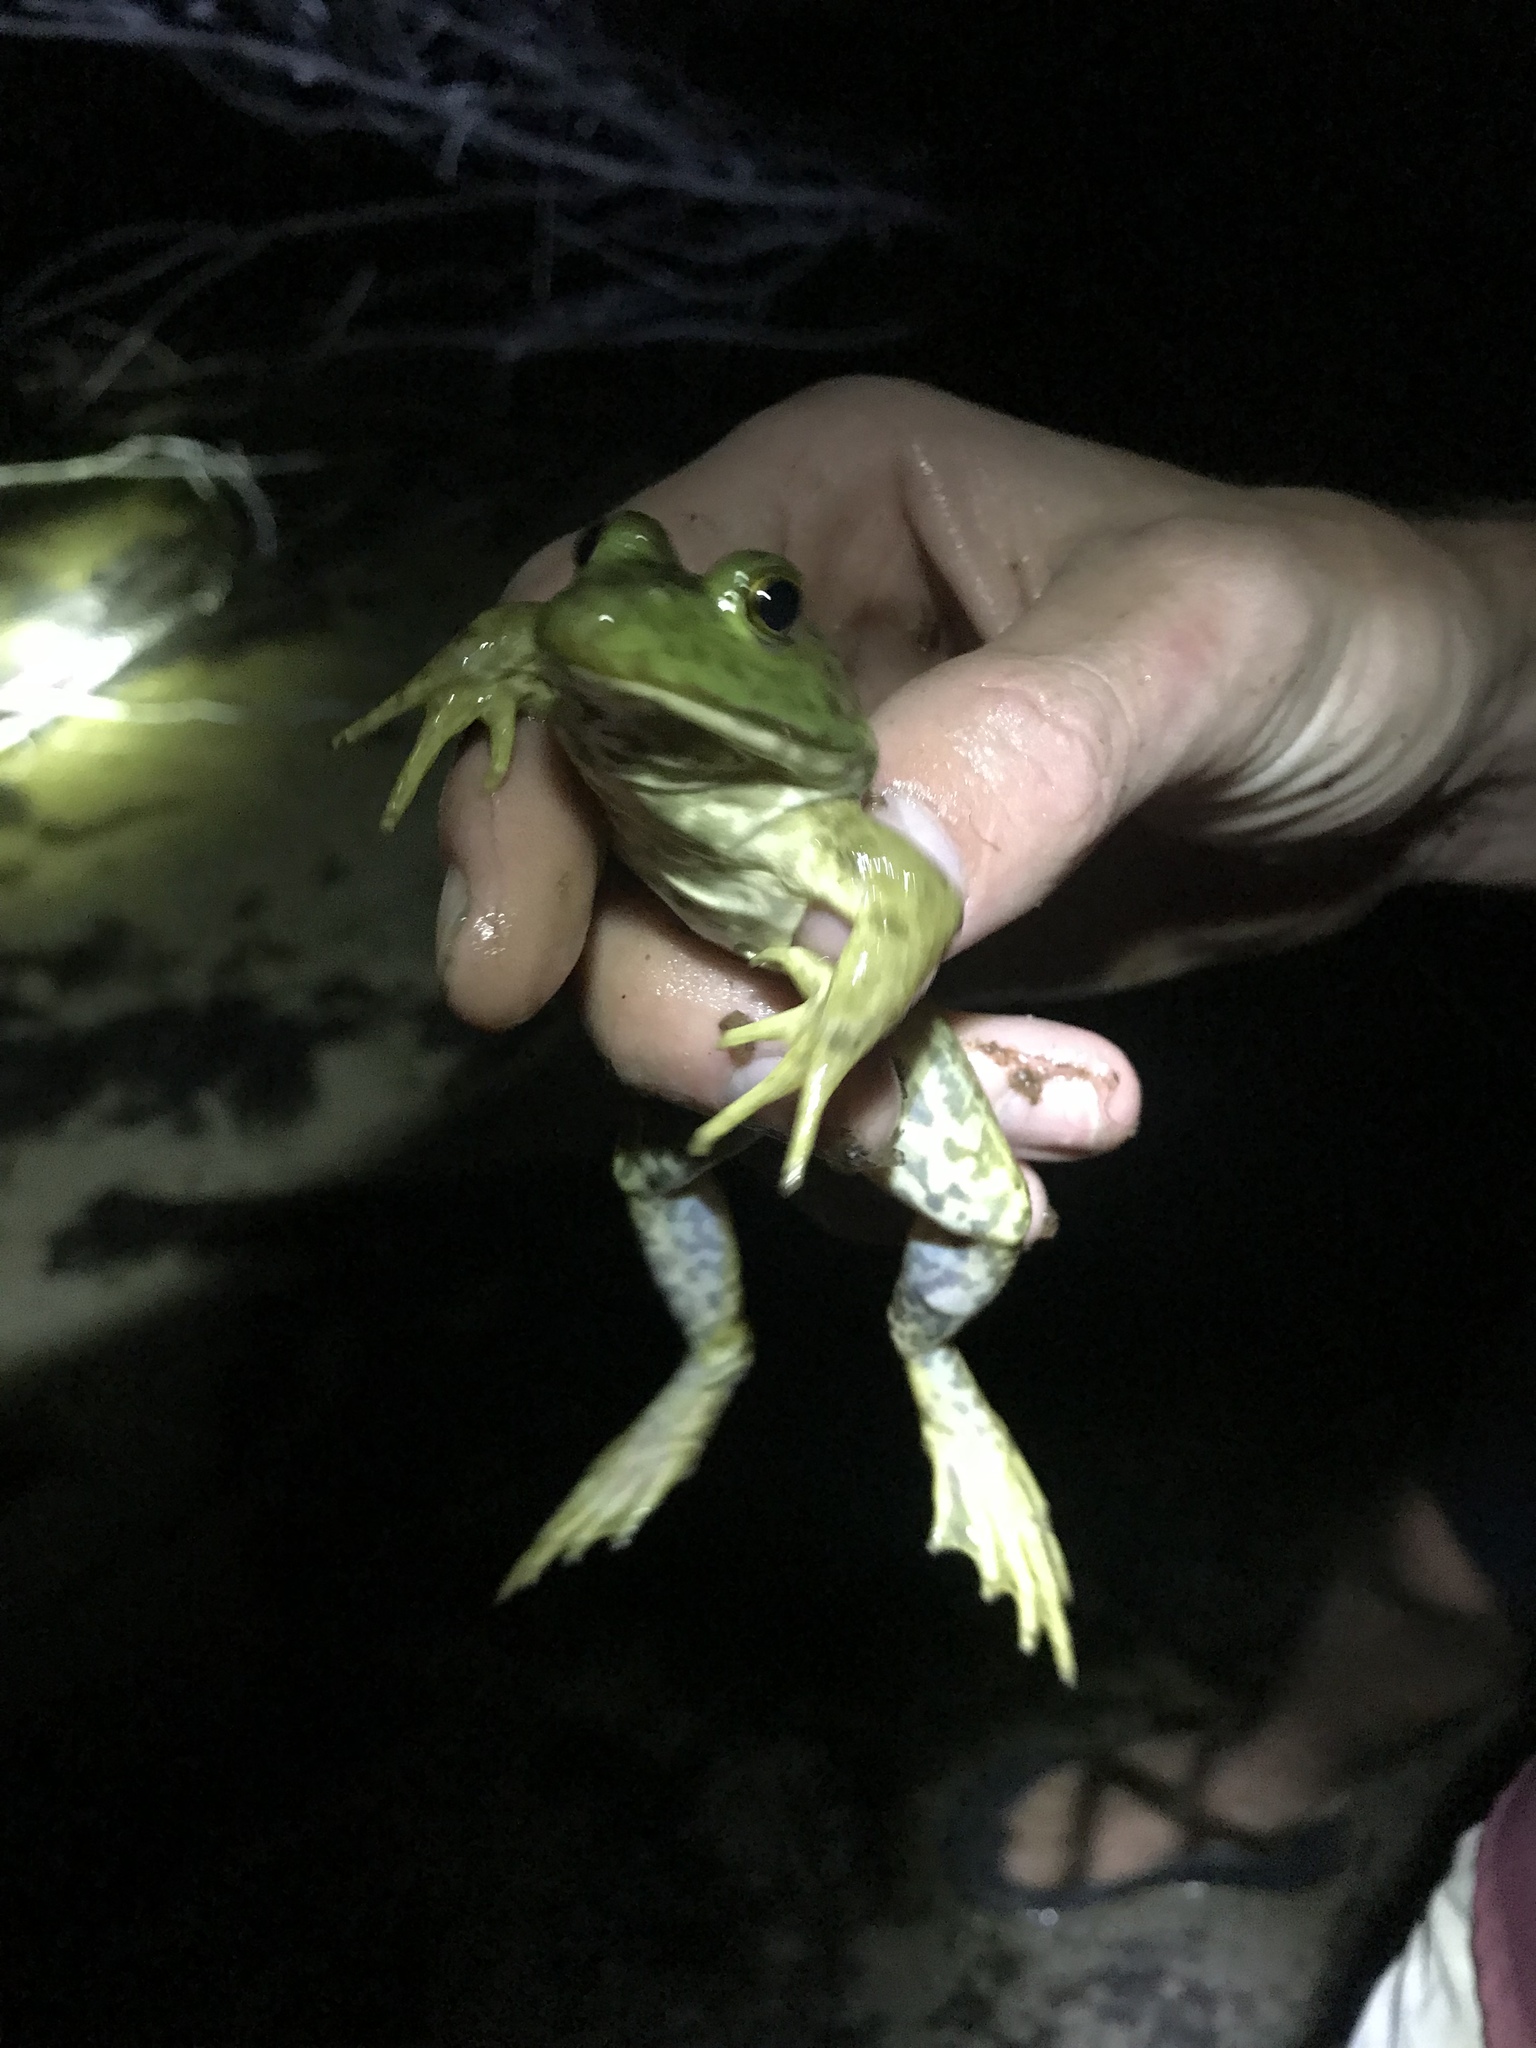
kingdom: Animalia
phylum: Chordata
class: Amphibia
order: Anura
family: Ranidae
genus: Lithobates
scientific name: Lithobates catesbeianus
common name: American bullfrog
